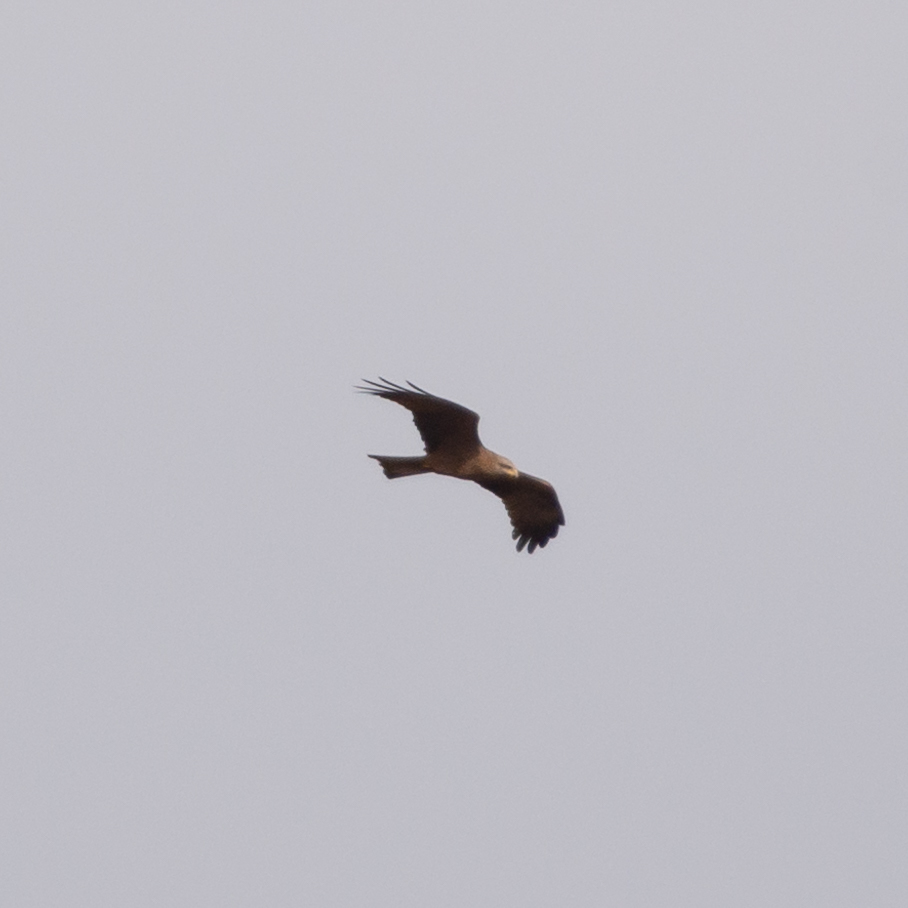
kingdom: Animalia
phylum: Chordata
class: Aves
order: Accipitriformes
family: Accipitridae
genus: Milvus
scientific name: Milvus migrans
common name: Black kite
